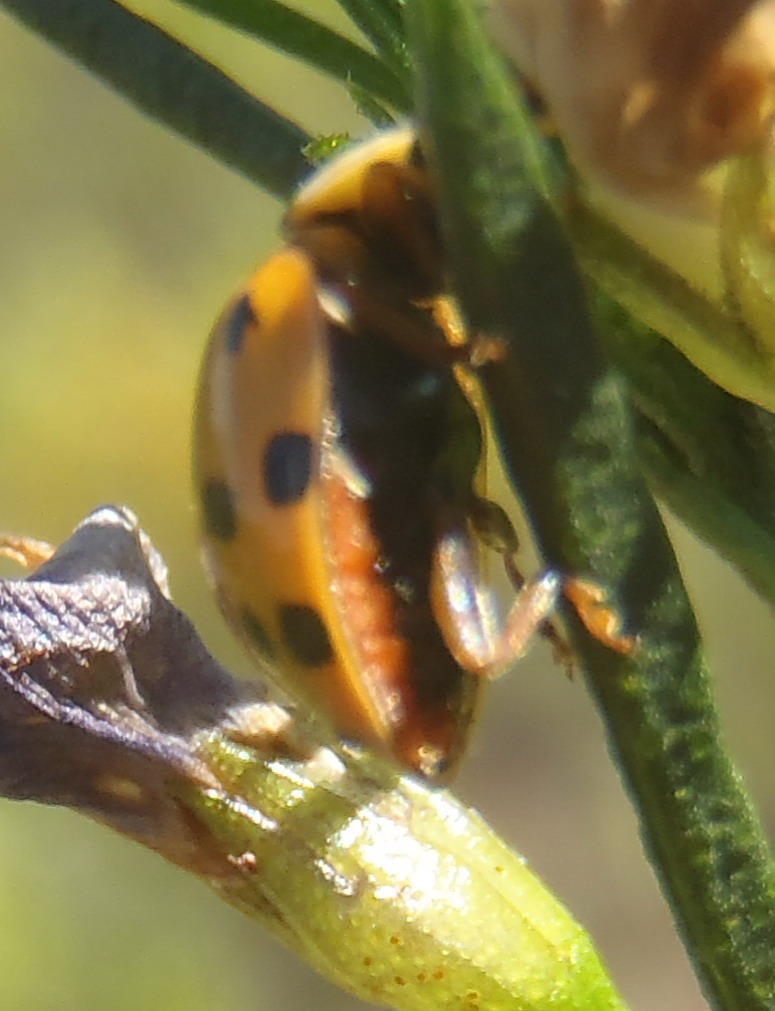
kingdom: Animalia
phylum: Arthropoda
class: Insecta
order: Coleoptera
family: Coccinellidae
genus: Harmonia
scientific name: Harmonia axyridis
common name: Harlequin ladybird
